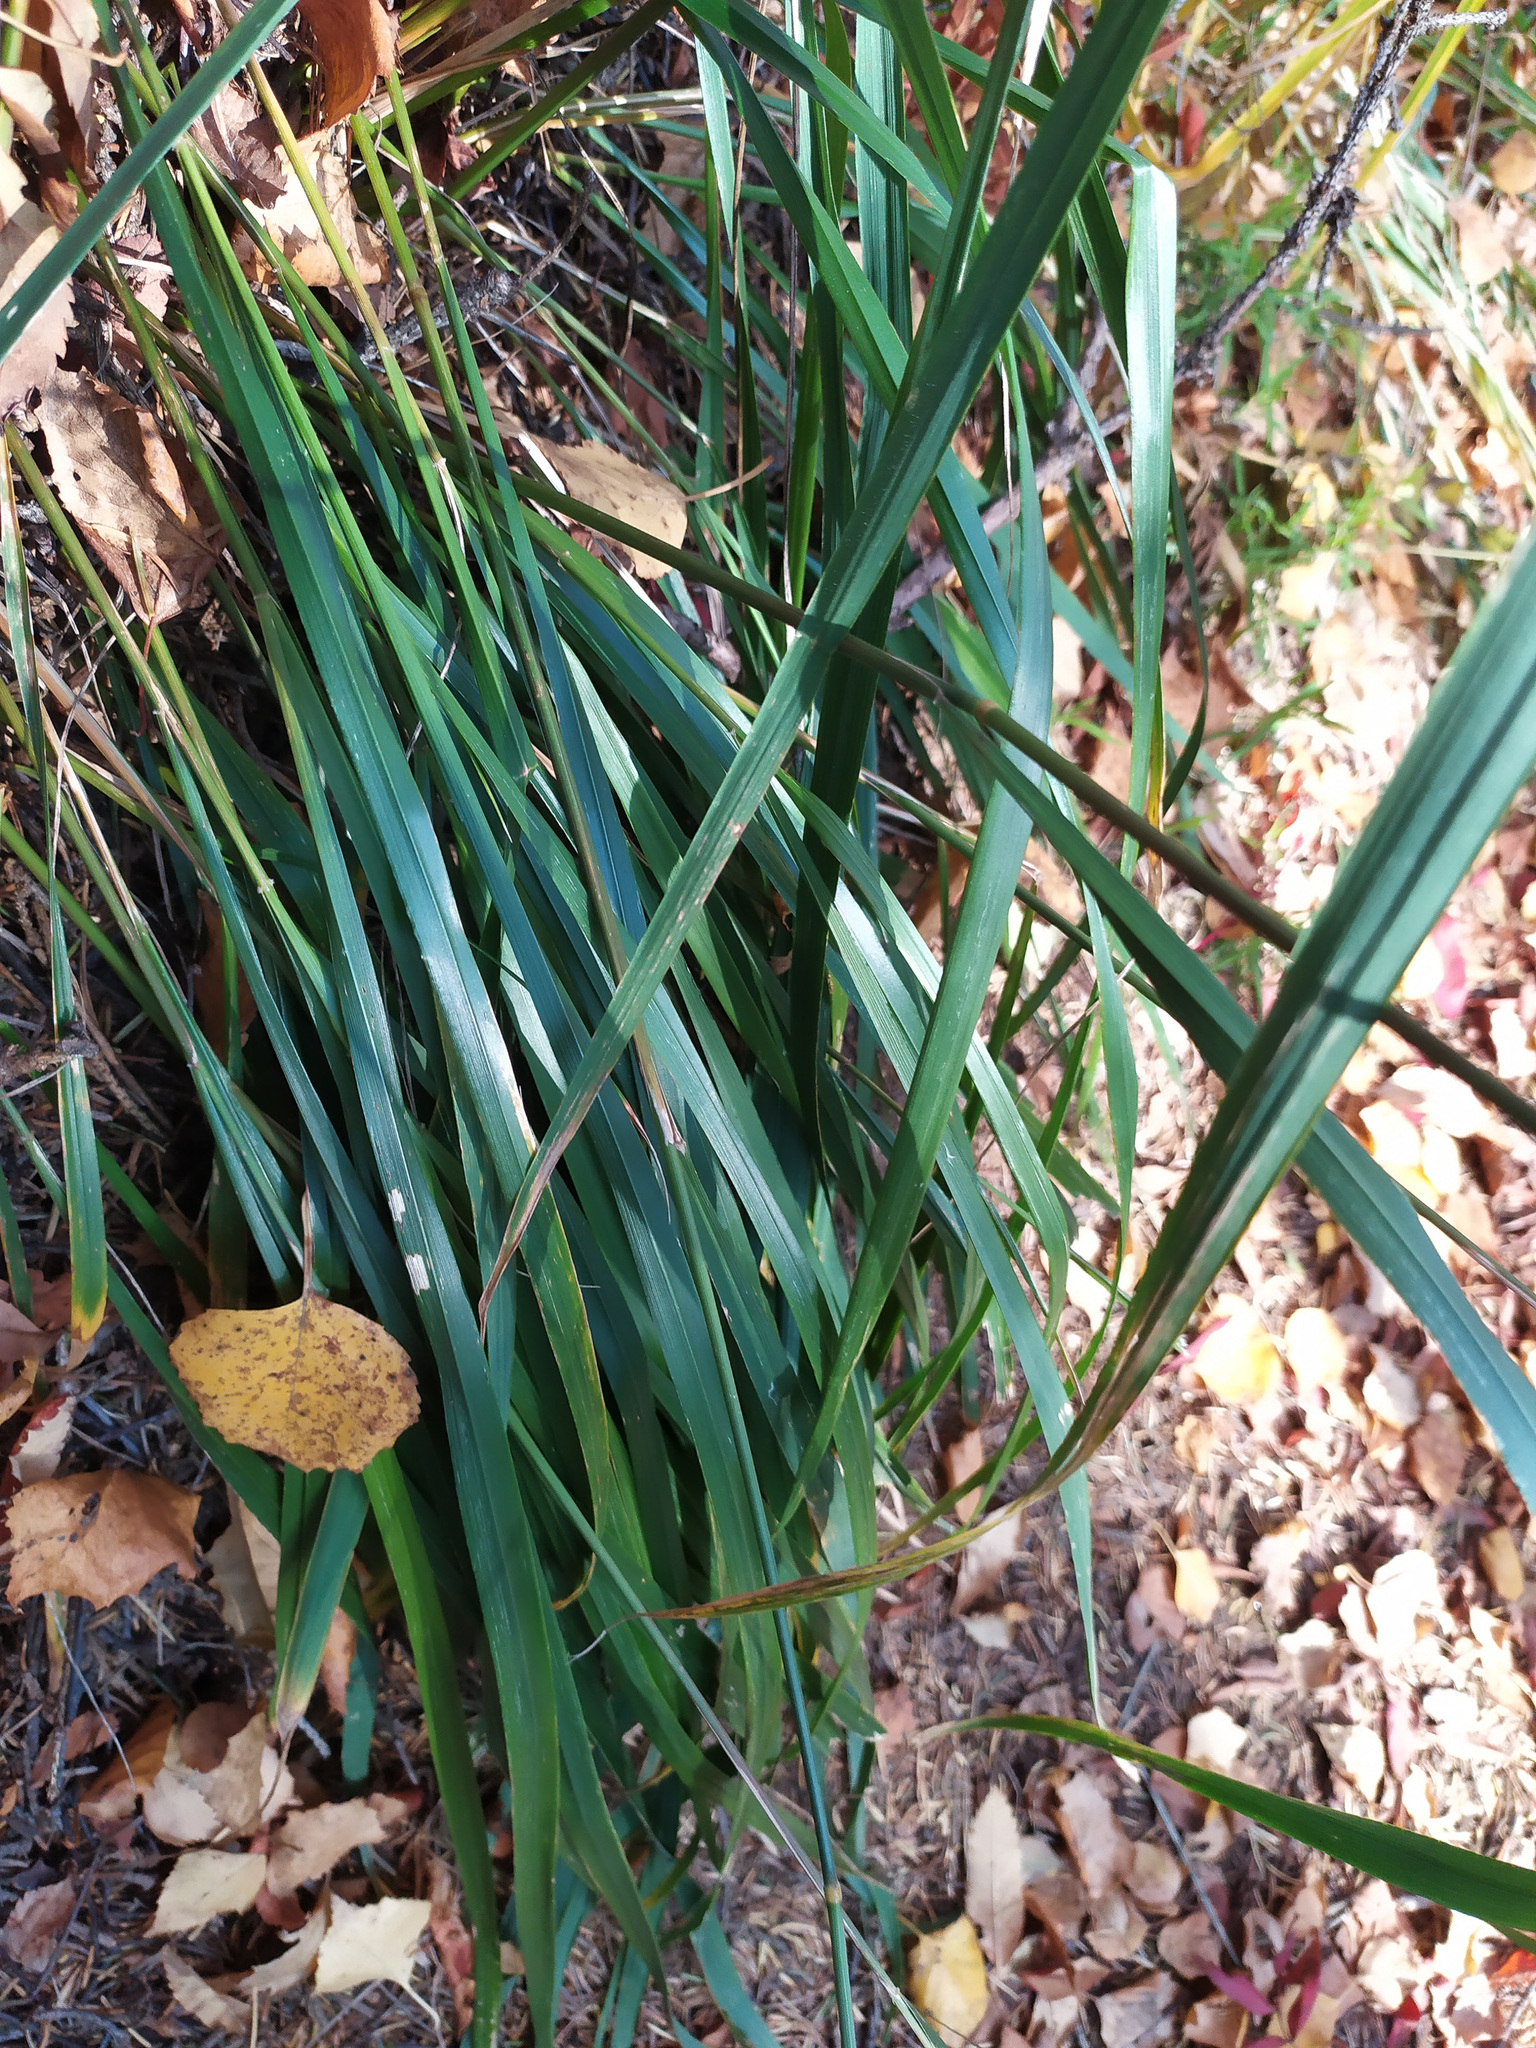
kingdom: Plantae
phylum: Tracheophyta
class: Liliopsida
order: Poales
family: Poaceae
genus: Calamagrostis
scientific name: Calamagrostis arundinacea
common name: Metskastik
